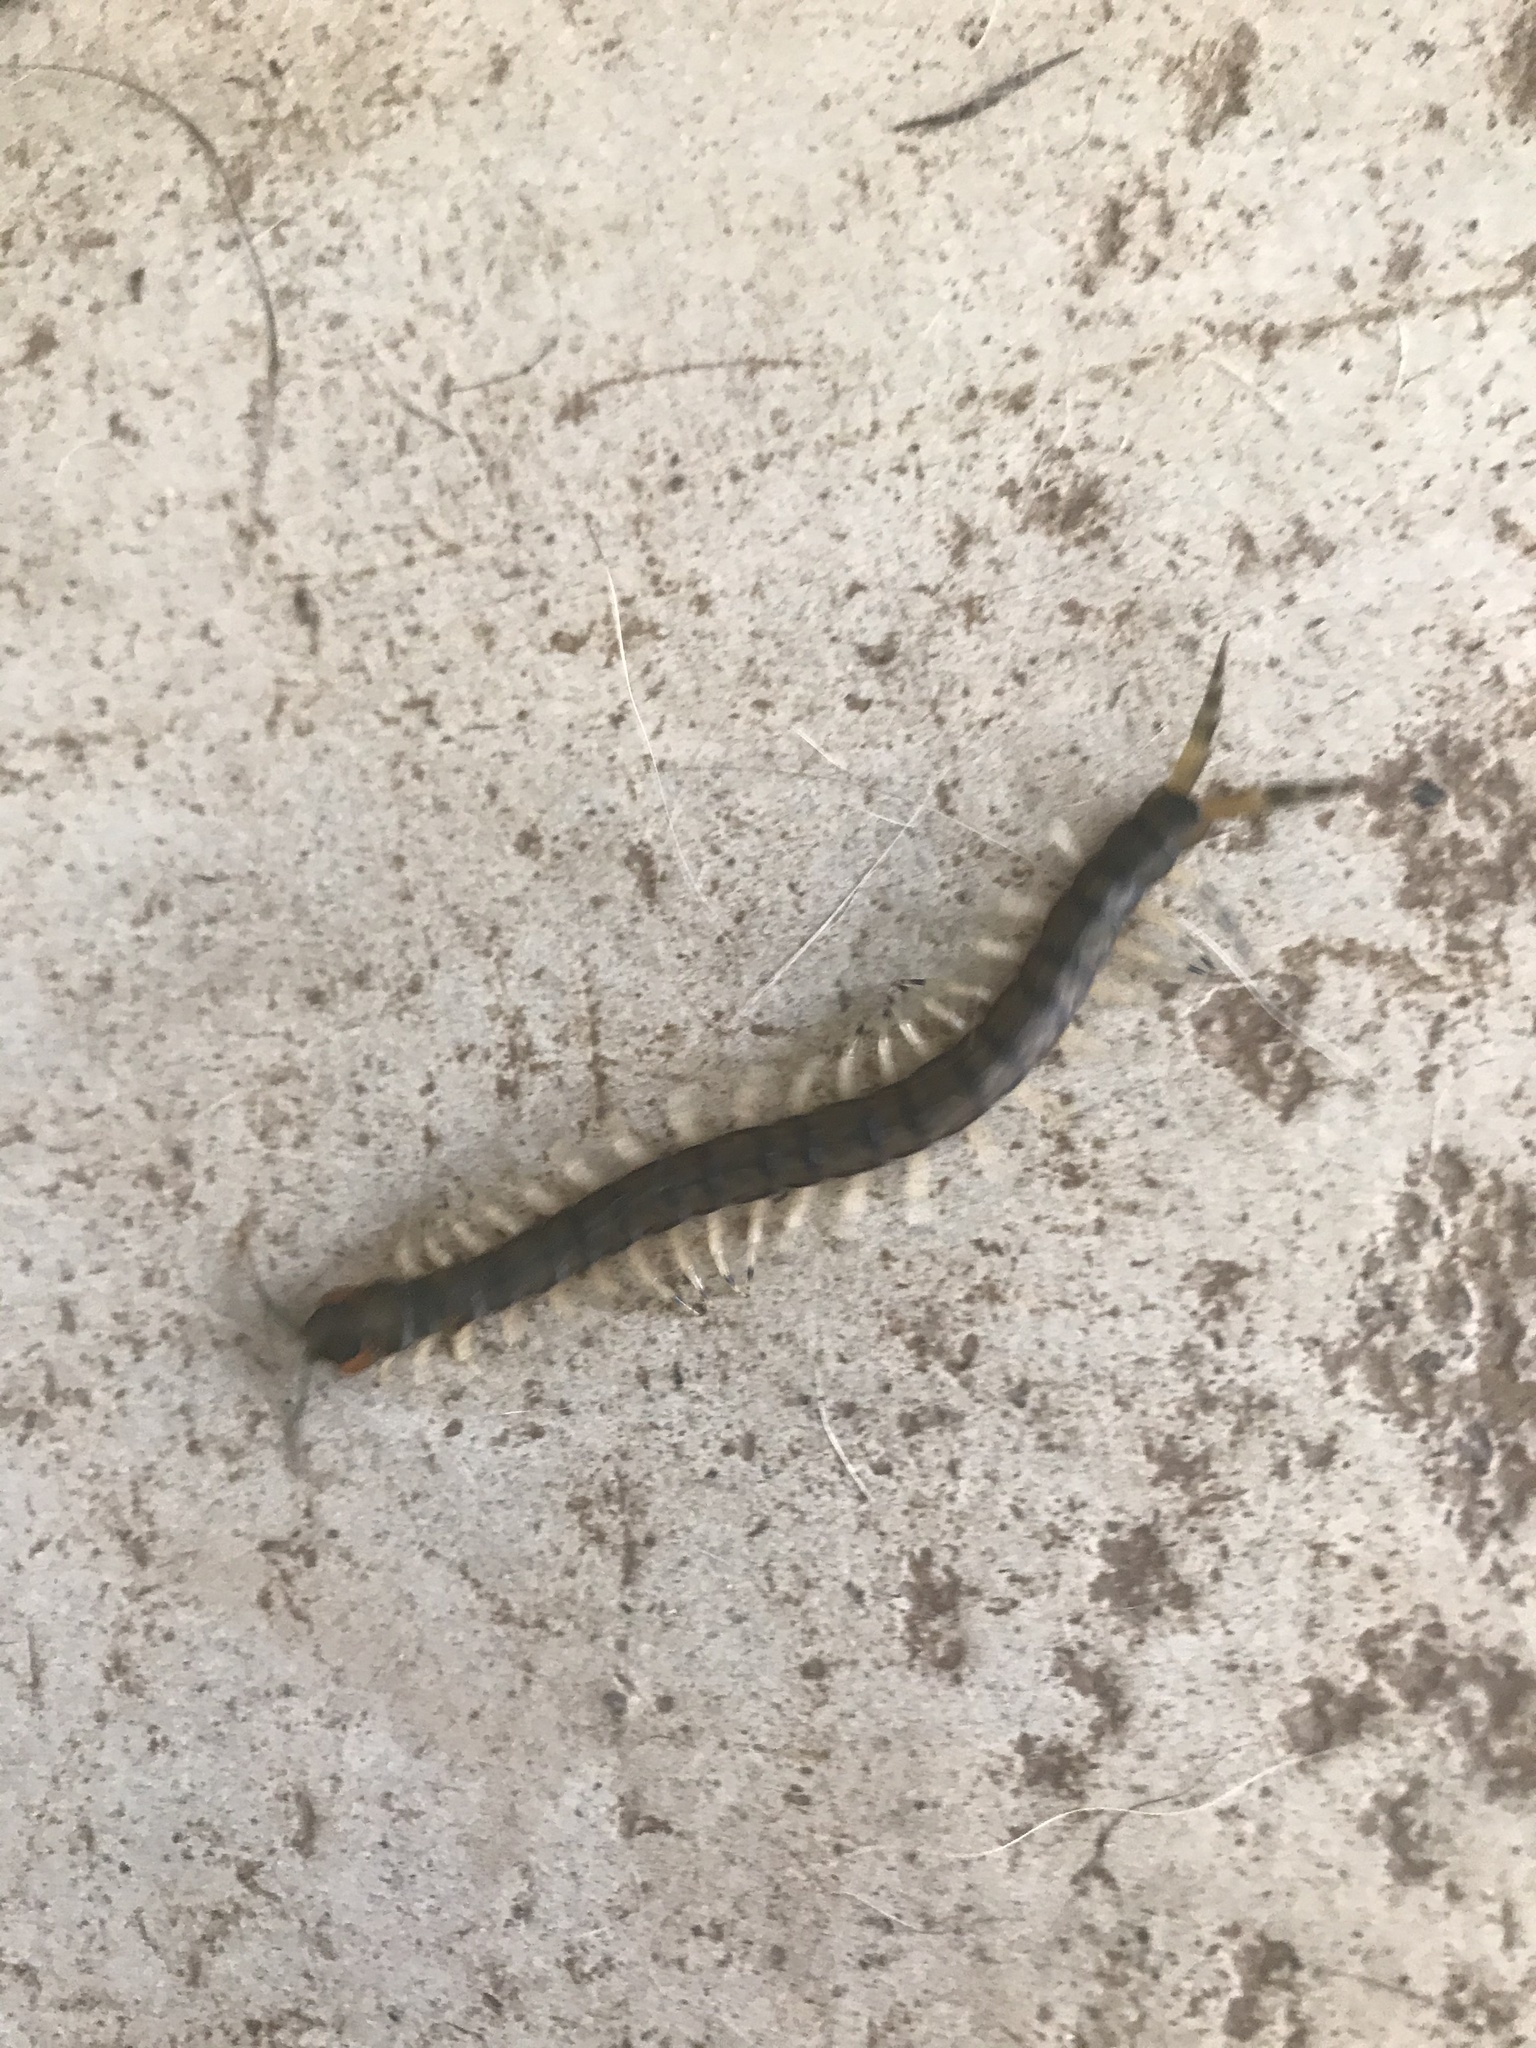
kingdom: Animalia
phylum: Arthropoda
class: Chilopoda
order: Scolopendromorpha
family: Scolopendridae
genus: Hemiscolopendra
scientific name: Hemiscolopendra marginata
